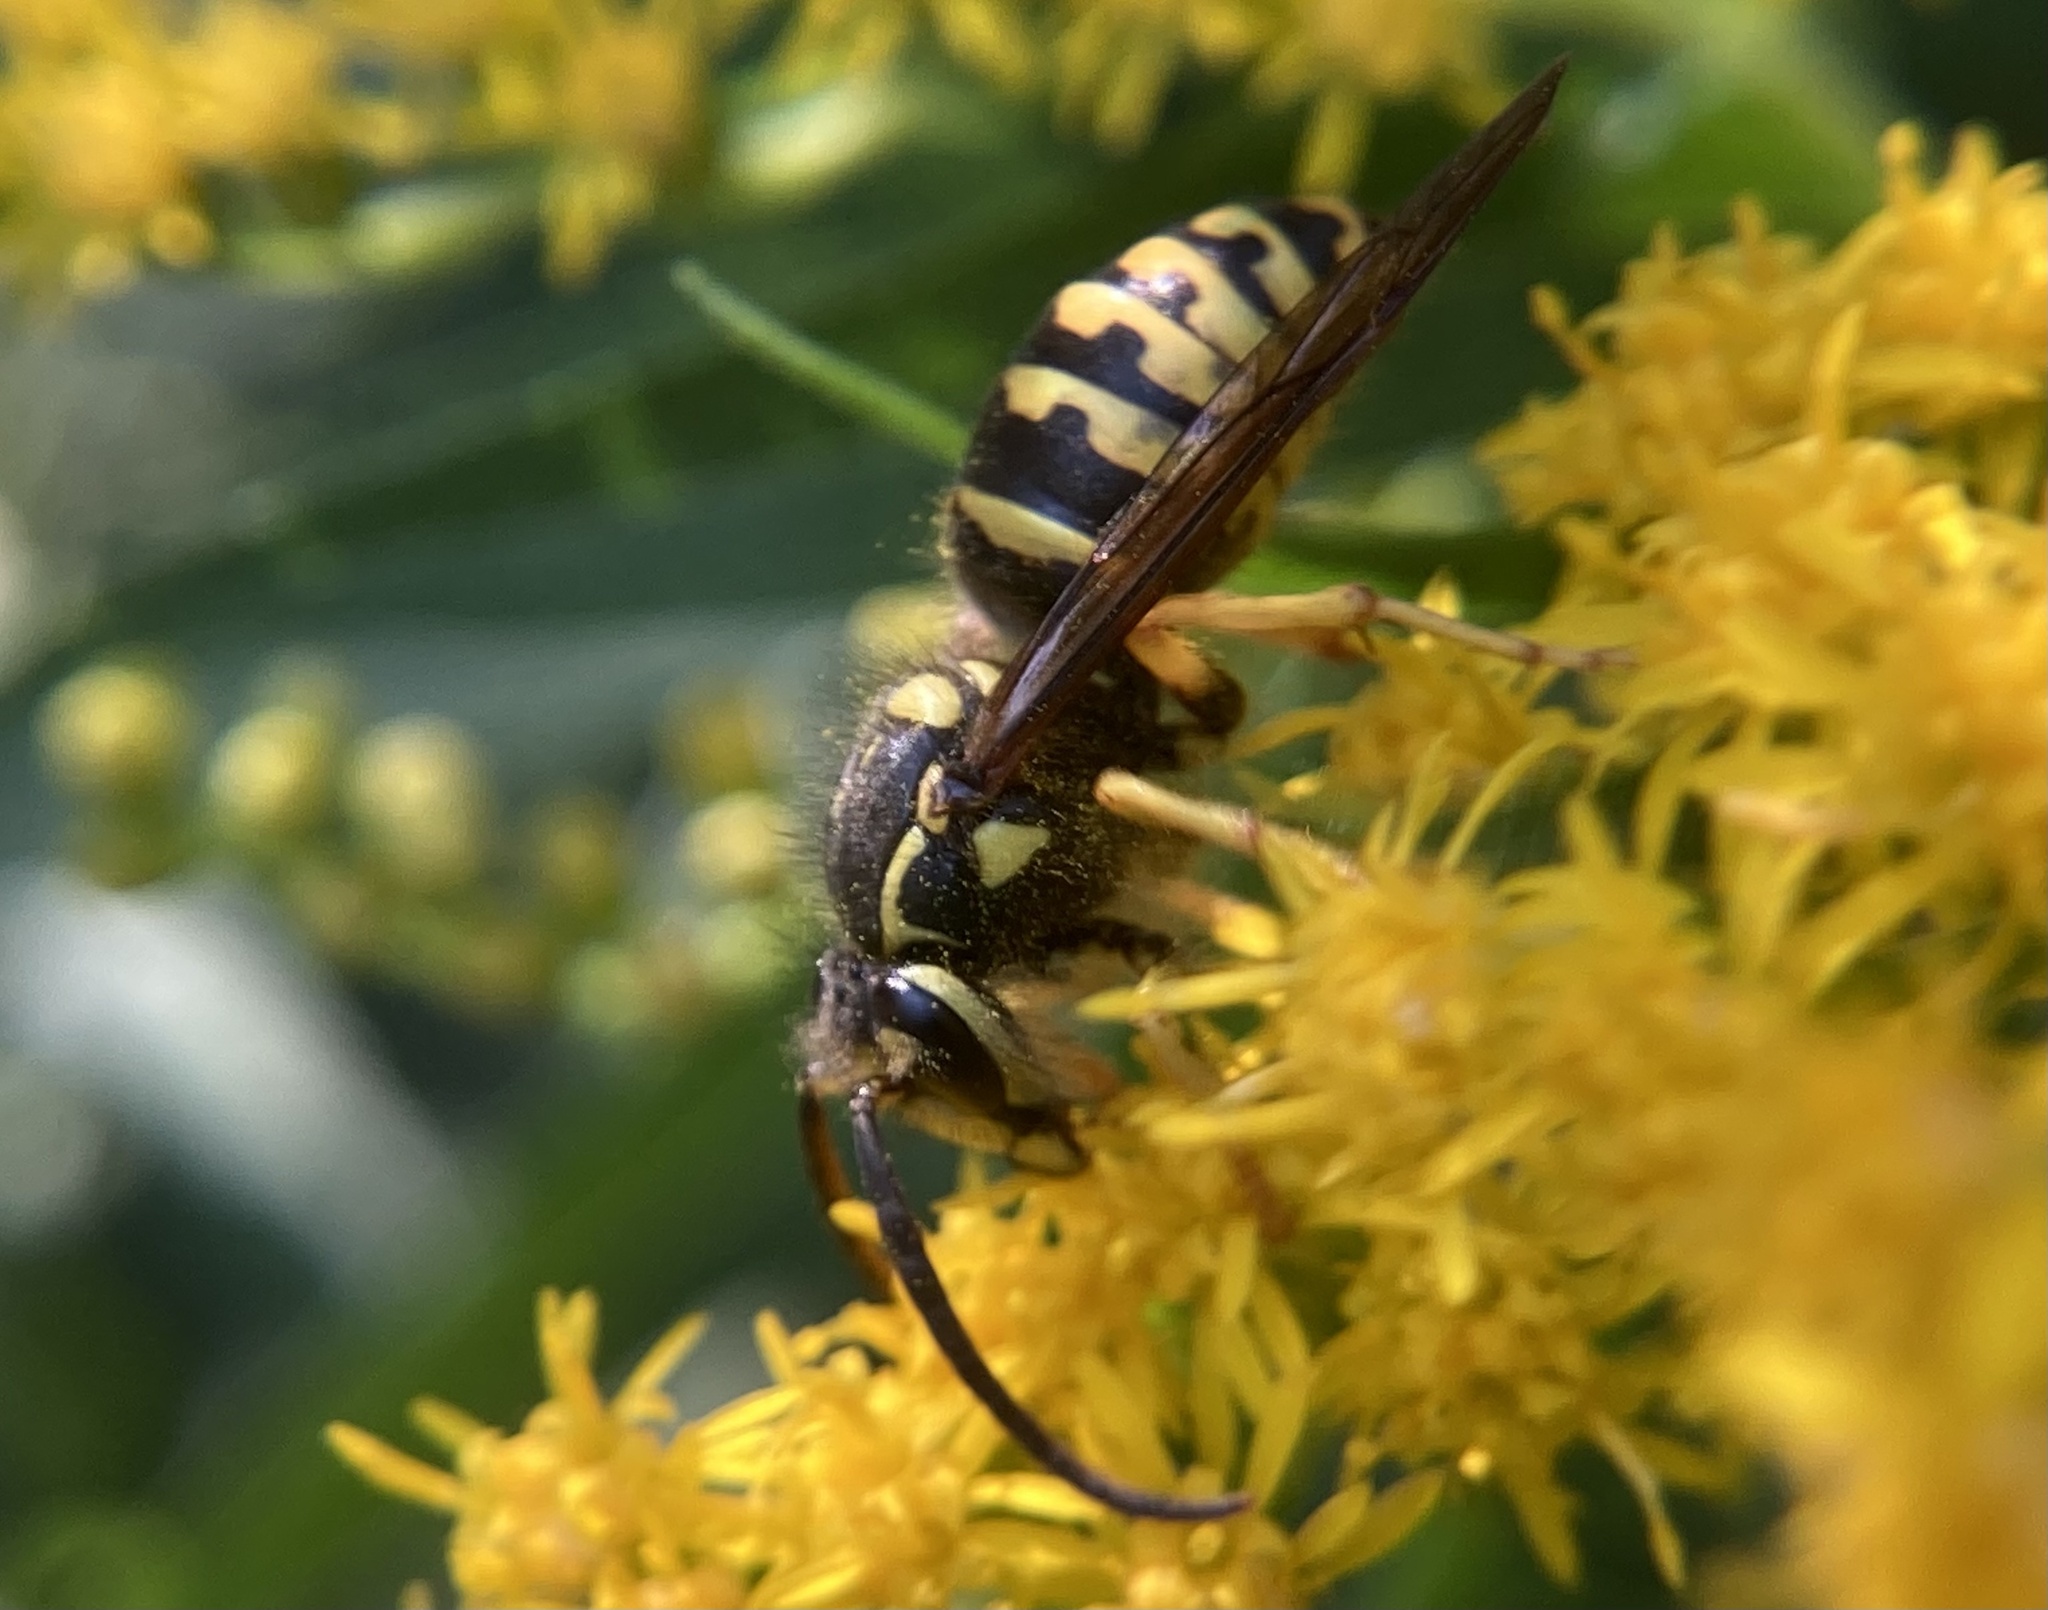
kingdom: Animalia
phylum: Arthropoda
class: Insecta
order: Hymenoptera
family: Vespidae
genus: Dolichovespula
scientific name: Dolichovespula arenaria
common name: Aerial yellowjacket
